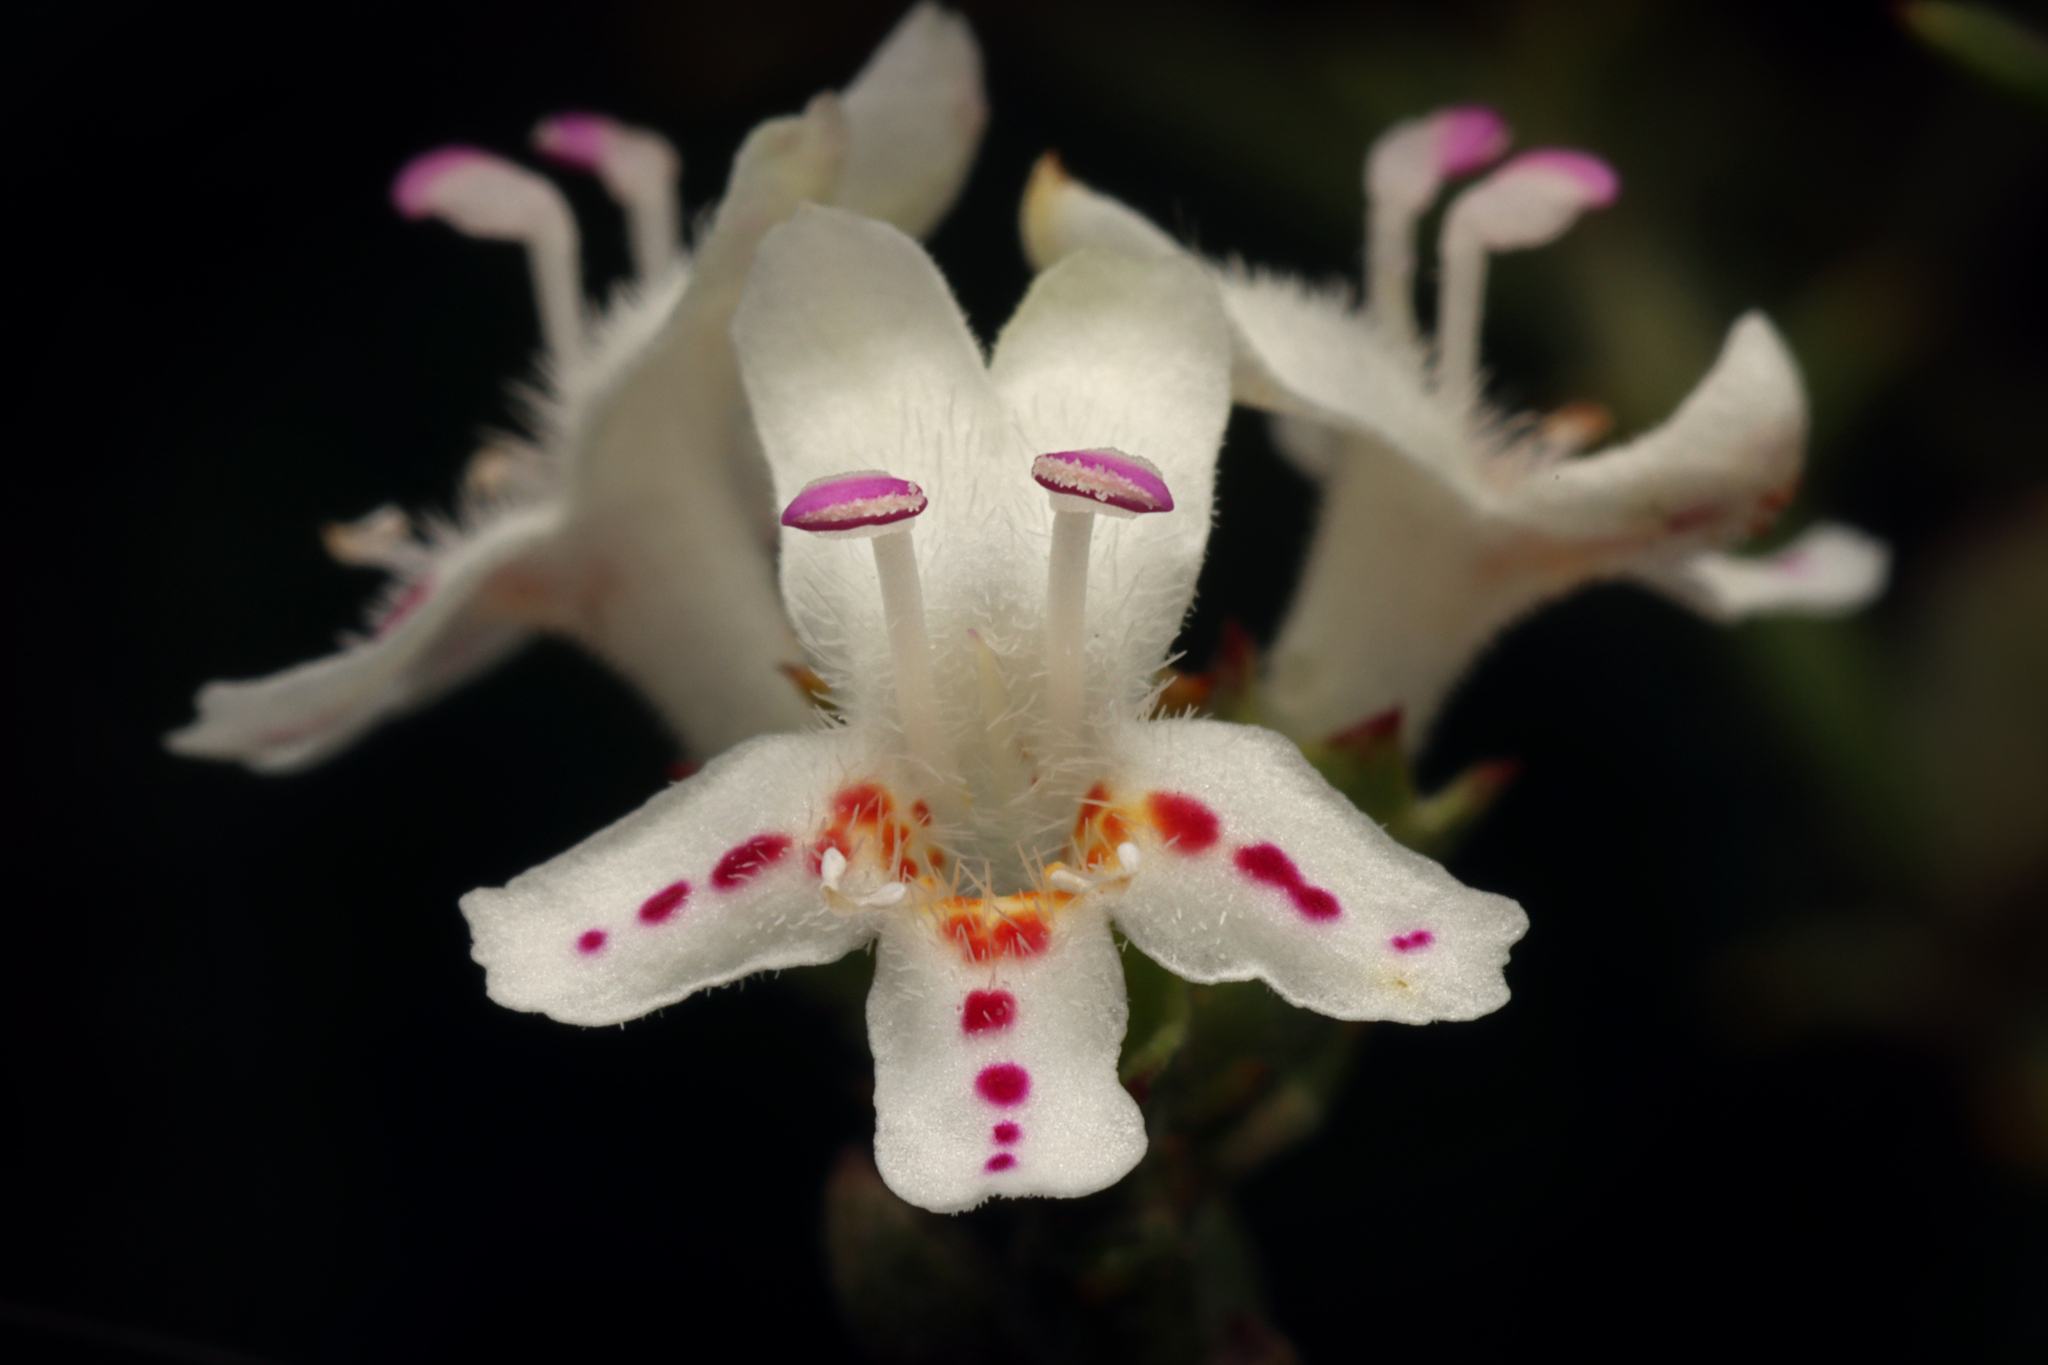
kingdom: Plantae
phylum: Tracheophyta
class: Magnoliopsida
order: Lamiales
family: Lamiaceae
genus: Westringia
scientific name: Westringia rigida
